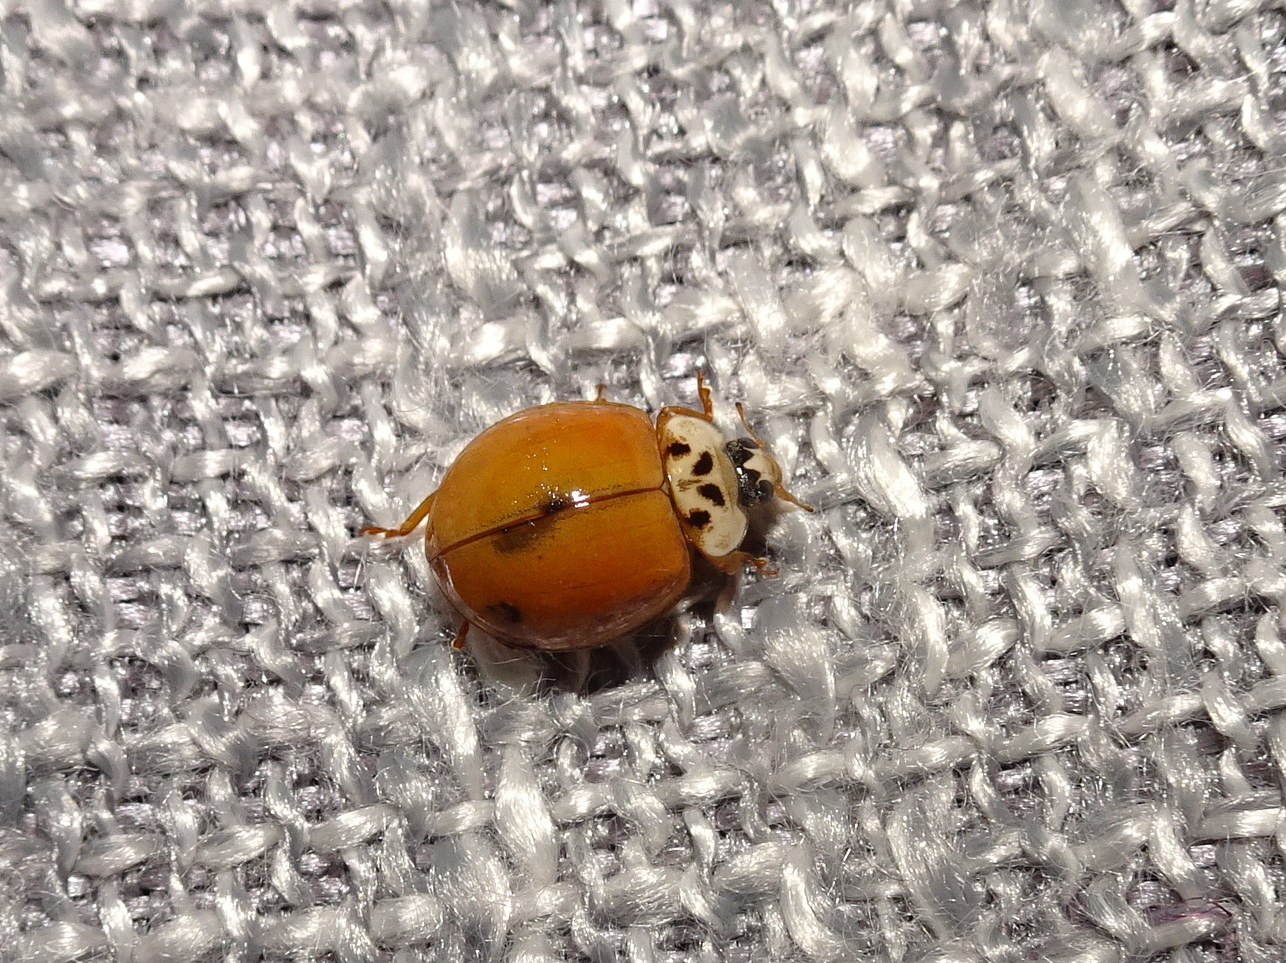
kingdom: Animalia
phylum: Arthropoda
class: Insecta
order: Coleoptera
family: Coccinellidae
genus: Harmonia
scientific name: Harmonia axyridis
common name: Harlequin ladybird
